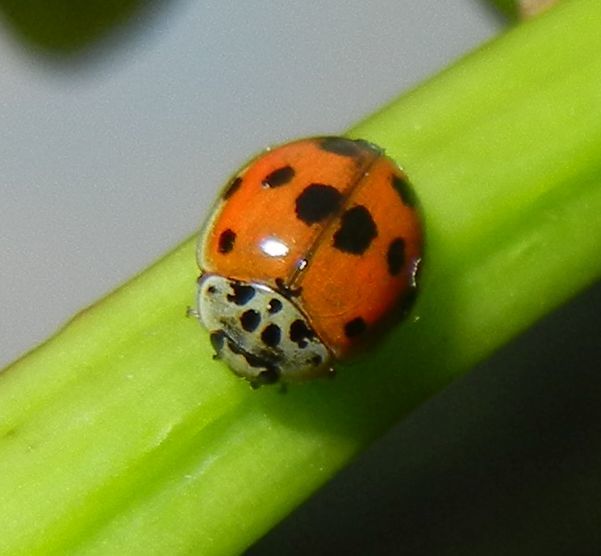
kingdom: Animalia
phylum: Arthropoda
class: Insecta
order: Coleoptera
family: Coccinellidae
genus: Adalia
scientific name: Adalia decempunctata
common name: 10-spot ladybird
